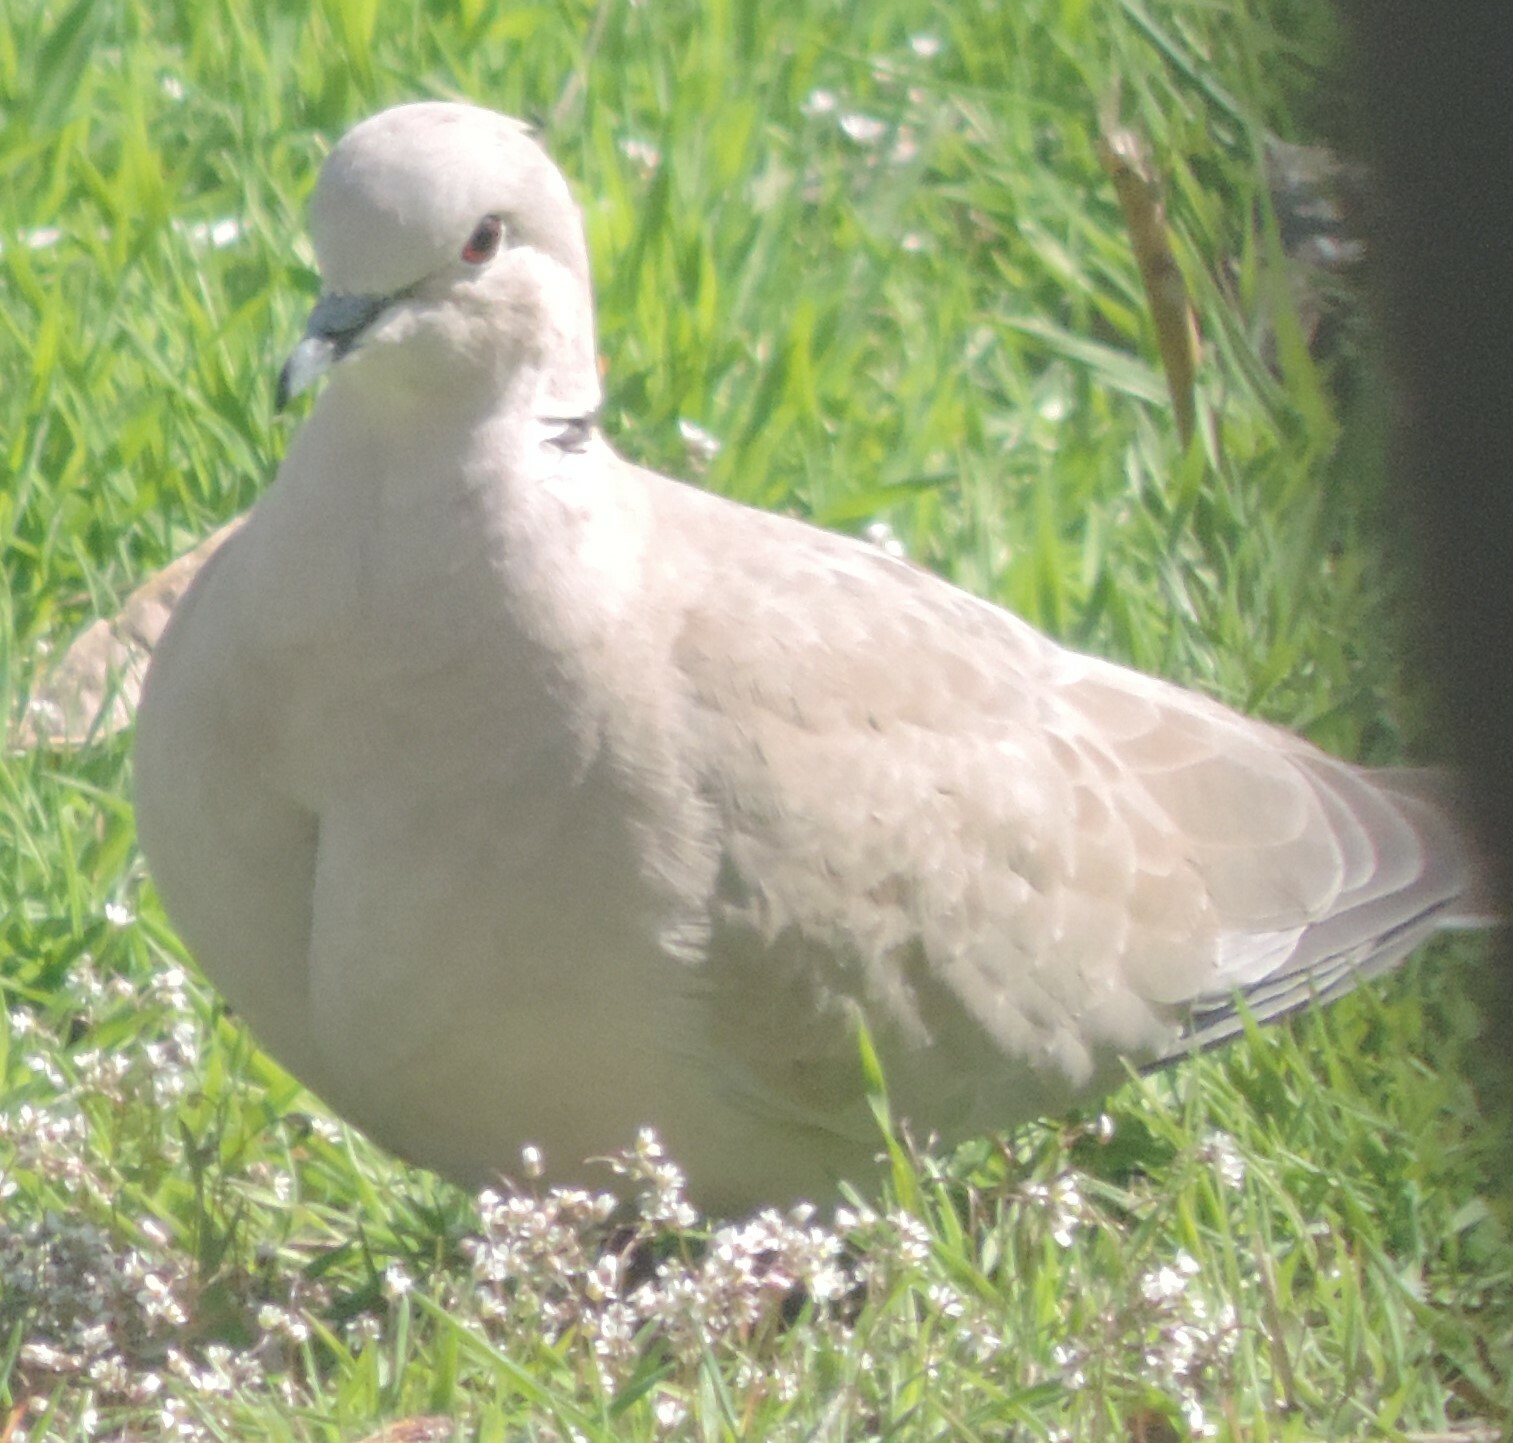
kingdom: Animalia
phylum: Chordata
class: Aves
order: Columbiformes
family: Columbidae
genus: Streptopelia
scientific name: Streptopelia decaocto
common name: Eurasian collared dove
